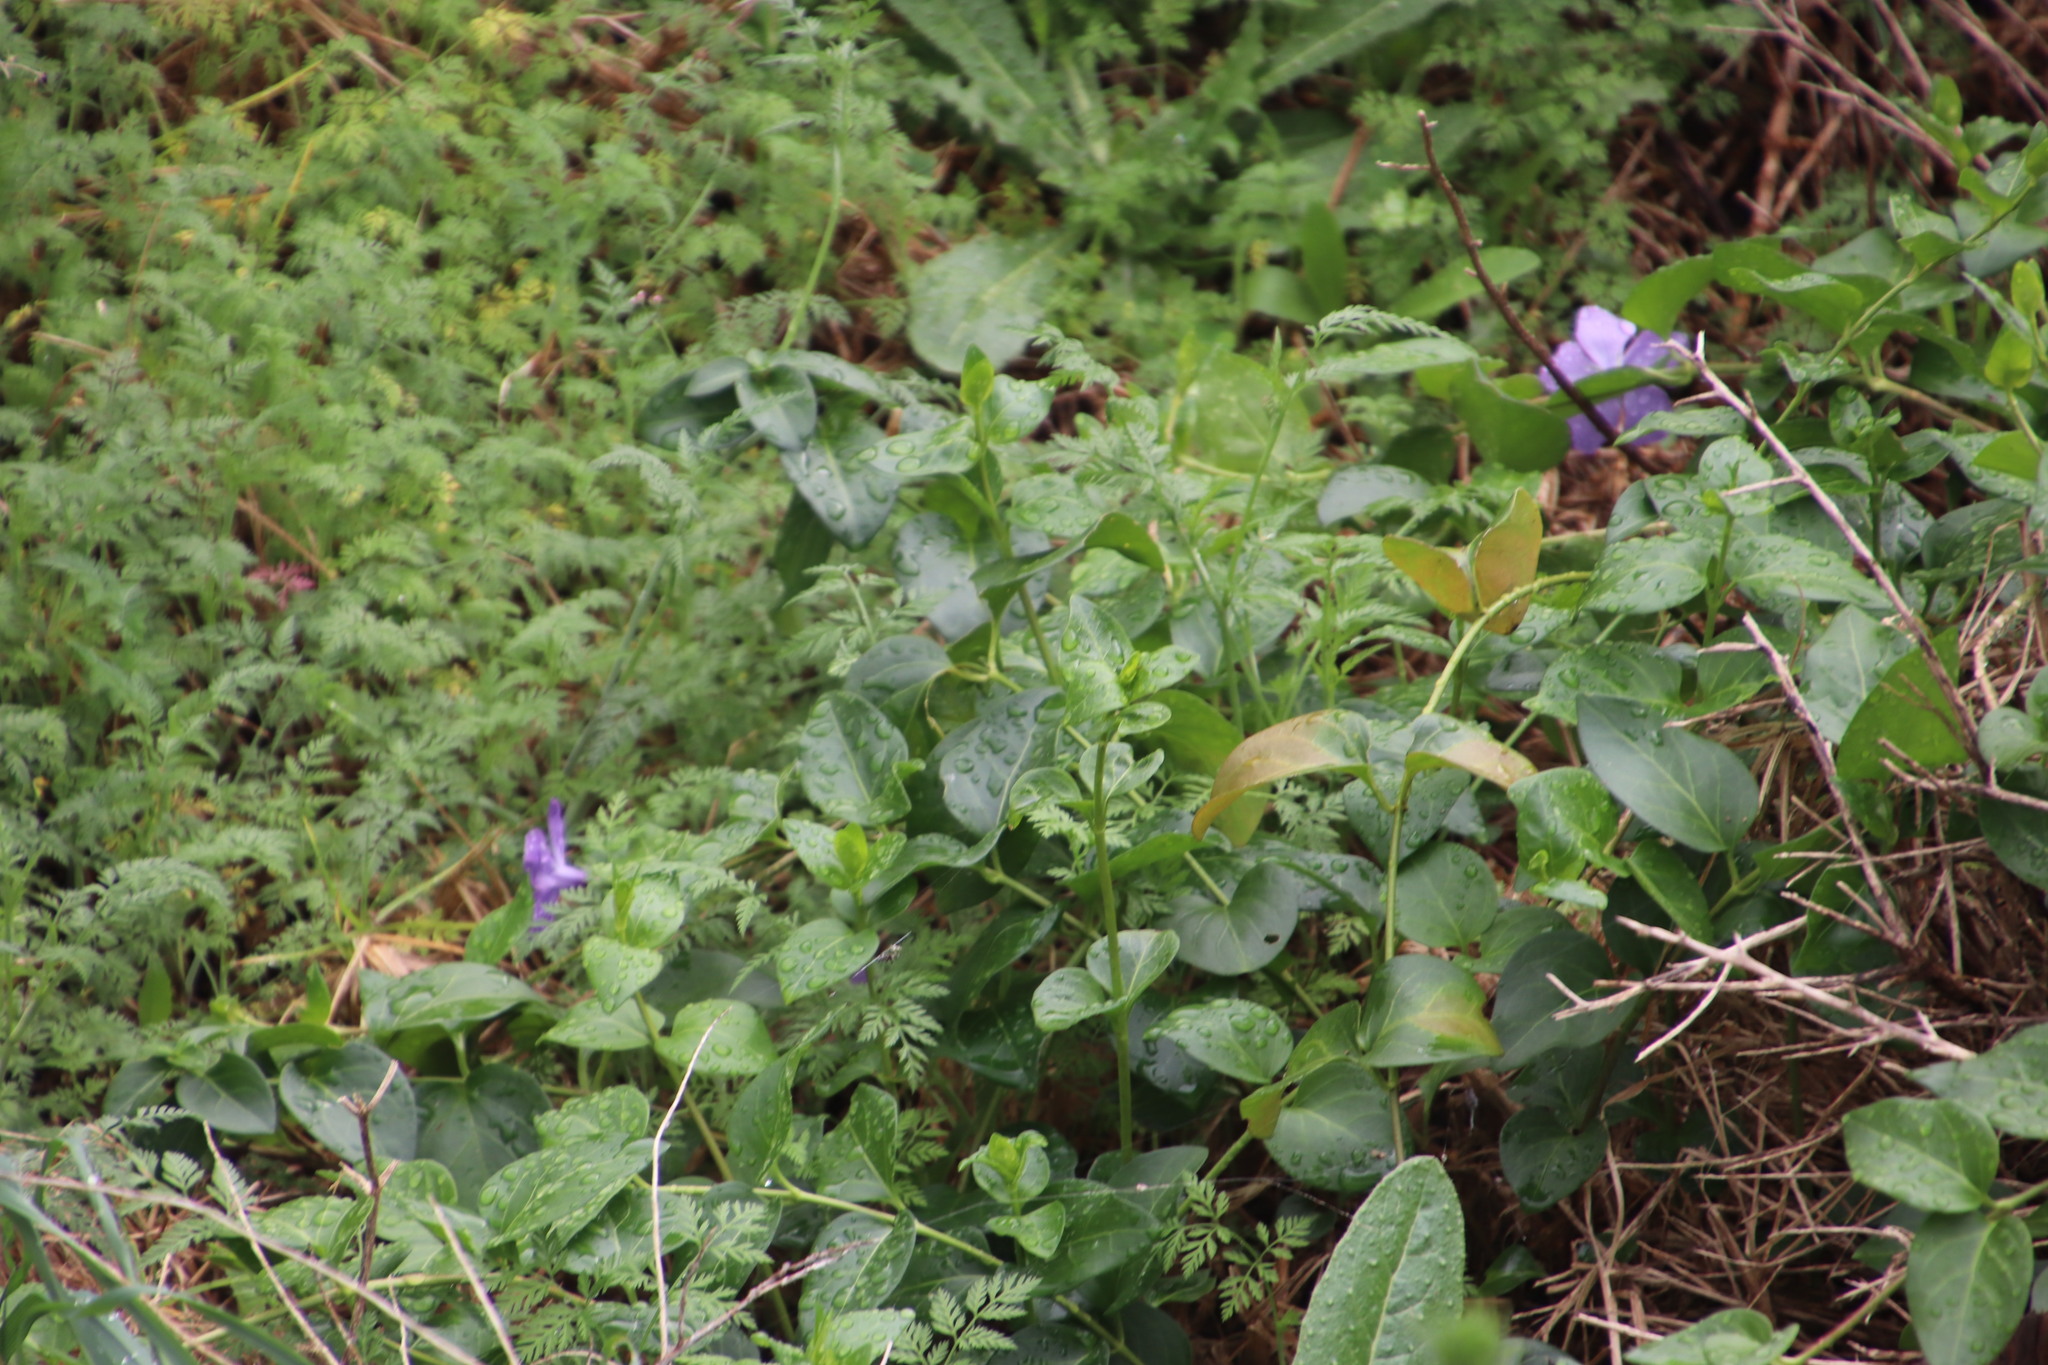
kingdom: Plantae
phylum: Tracheophyta
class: Magnoliopsida
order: Gentianales
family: Apocynaceae
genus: Vinca
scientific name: Vinca major
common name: Greater periwinkle
